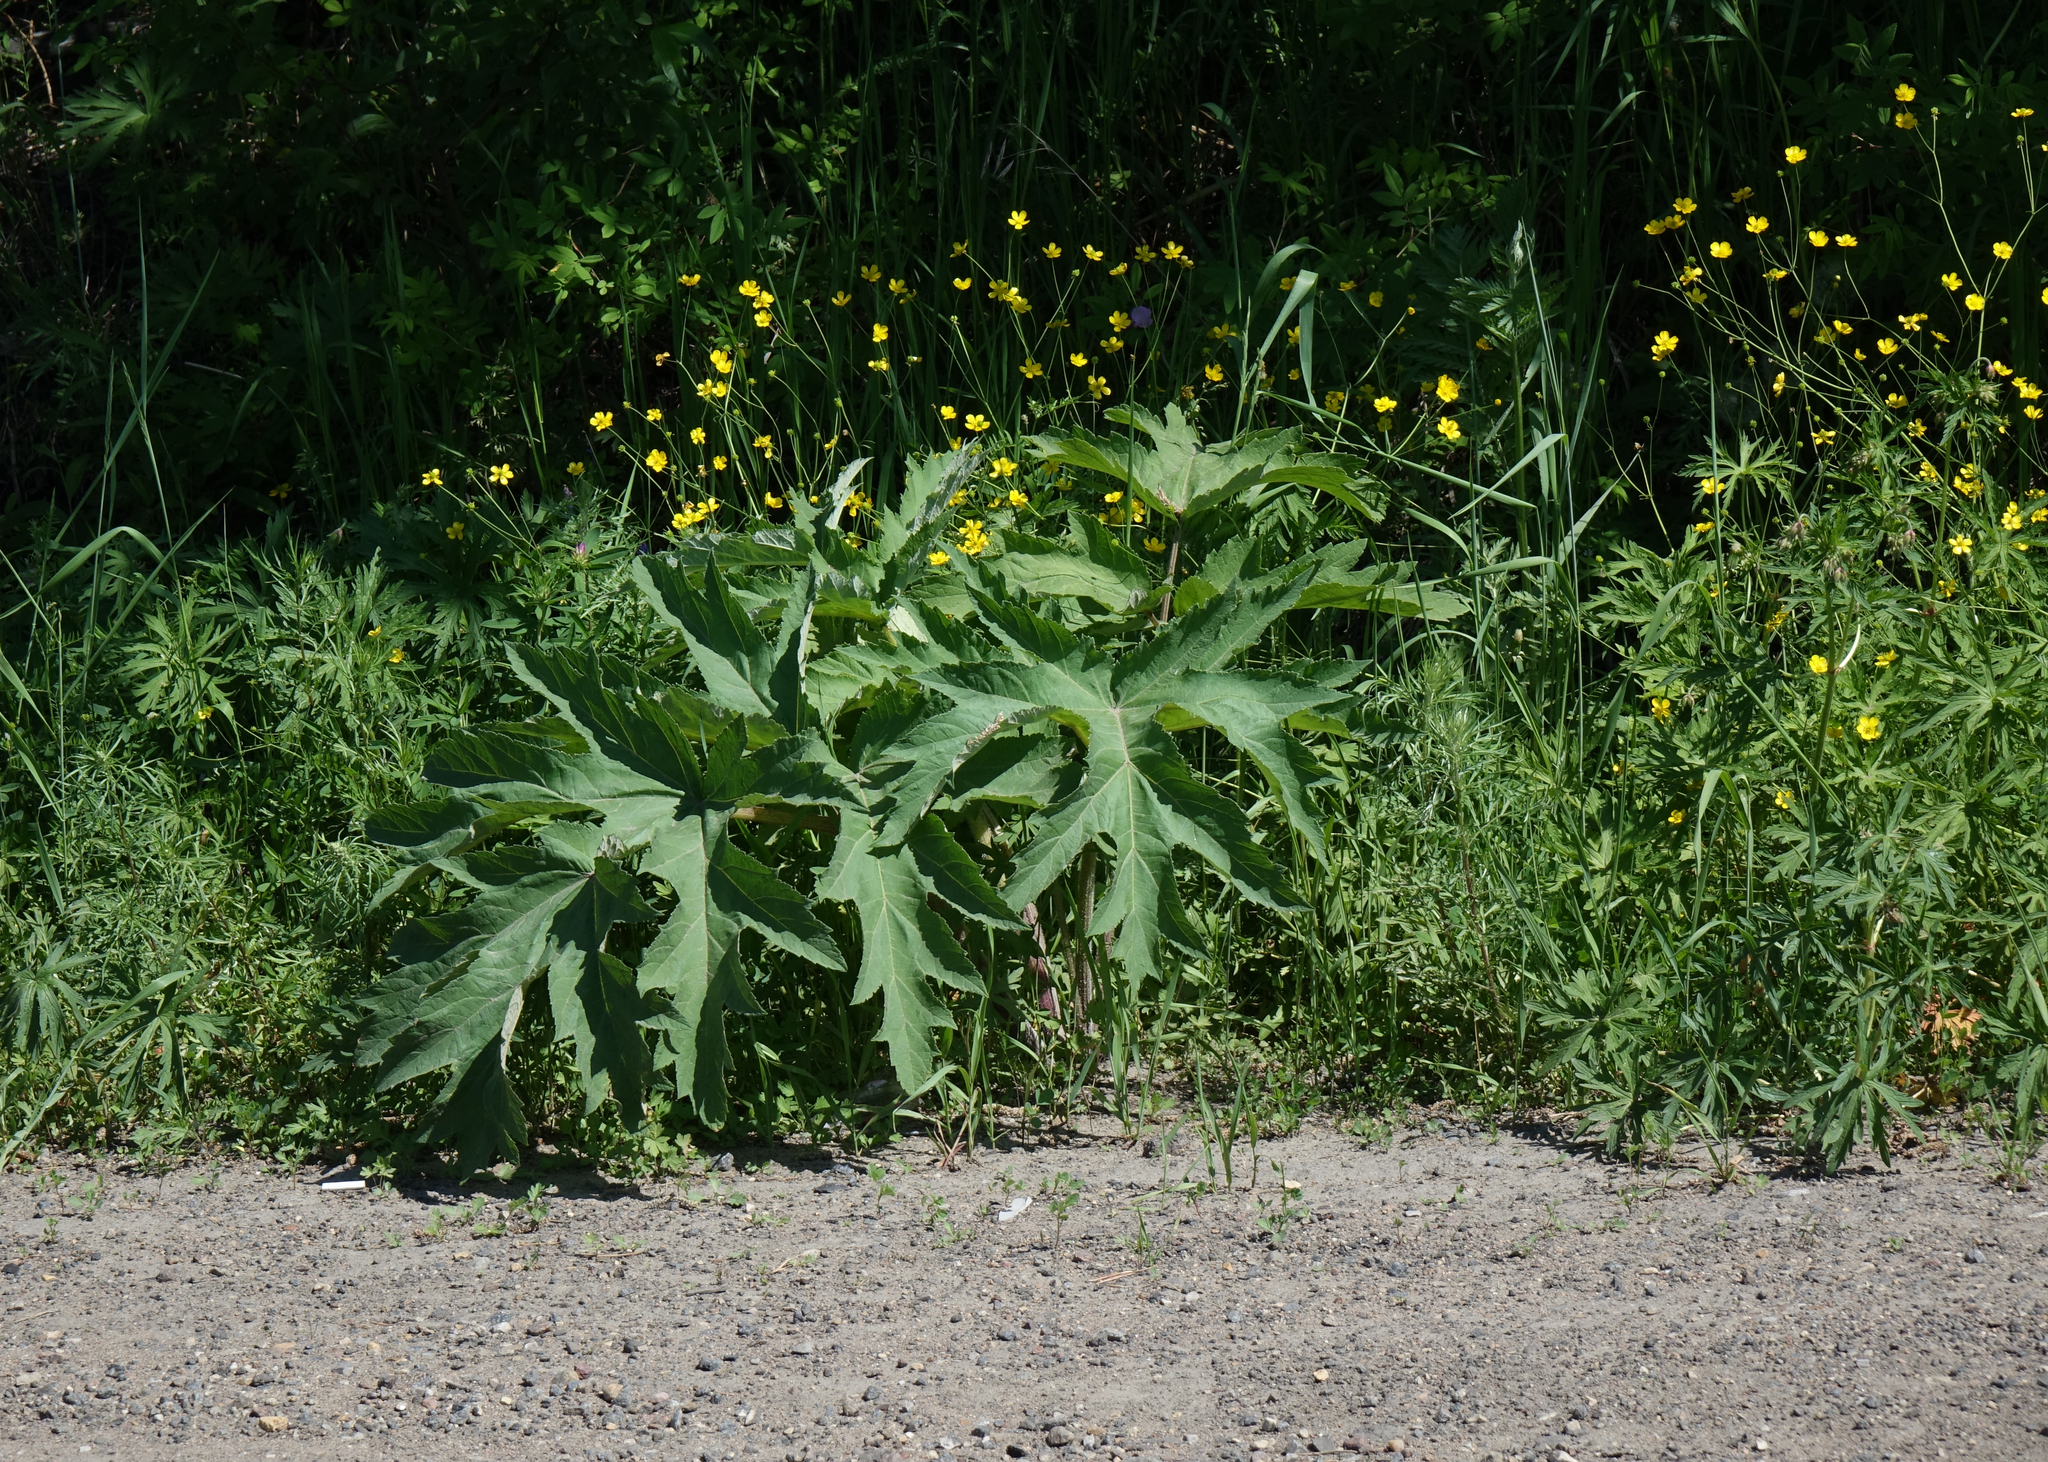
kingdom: Plantae
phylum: Tracheophyta
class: Magnoliopsida
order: Apiales
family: Apiaceae
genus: Heracleum
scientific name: Heracleum dissectum
